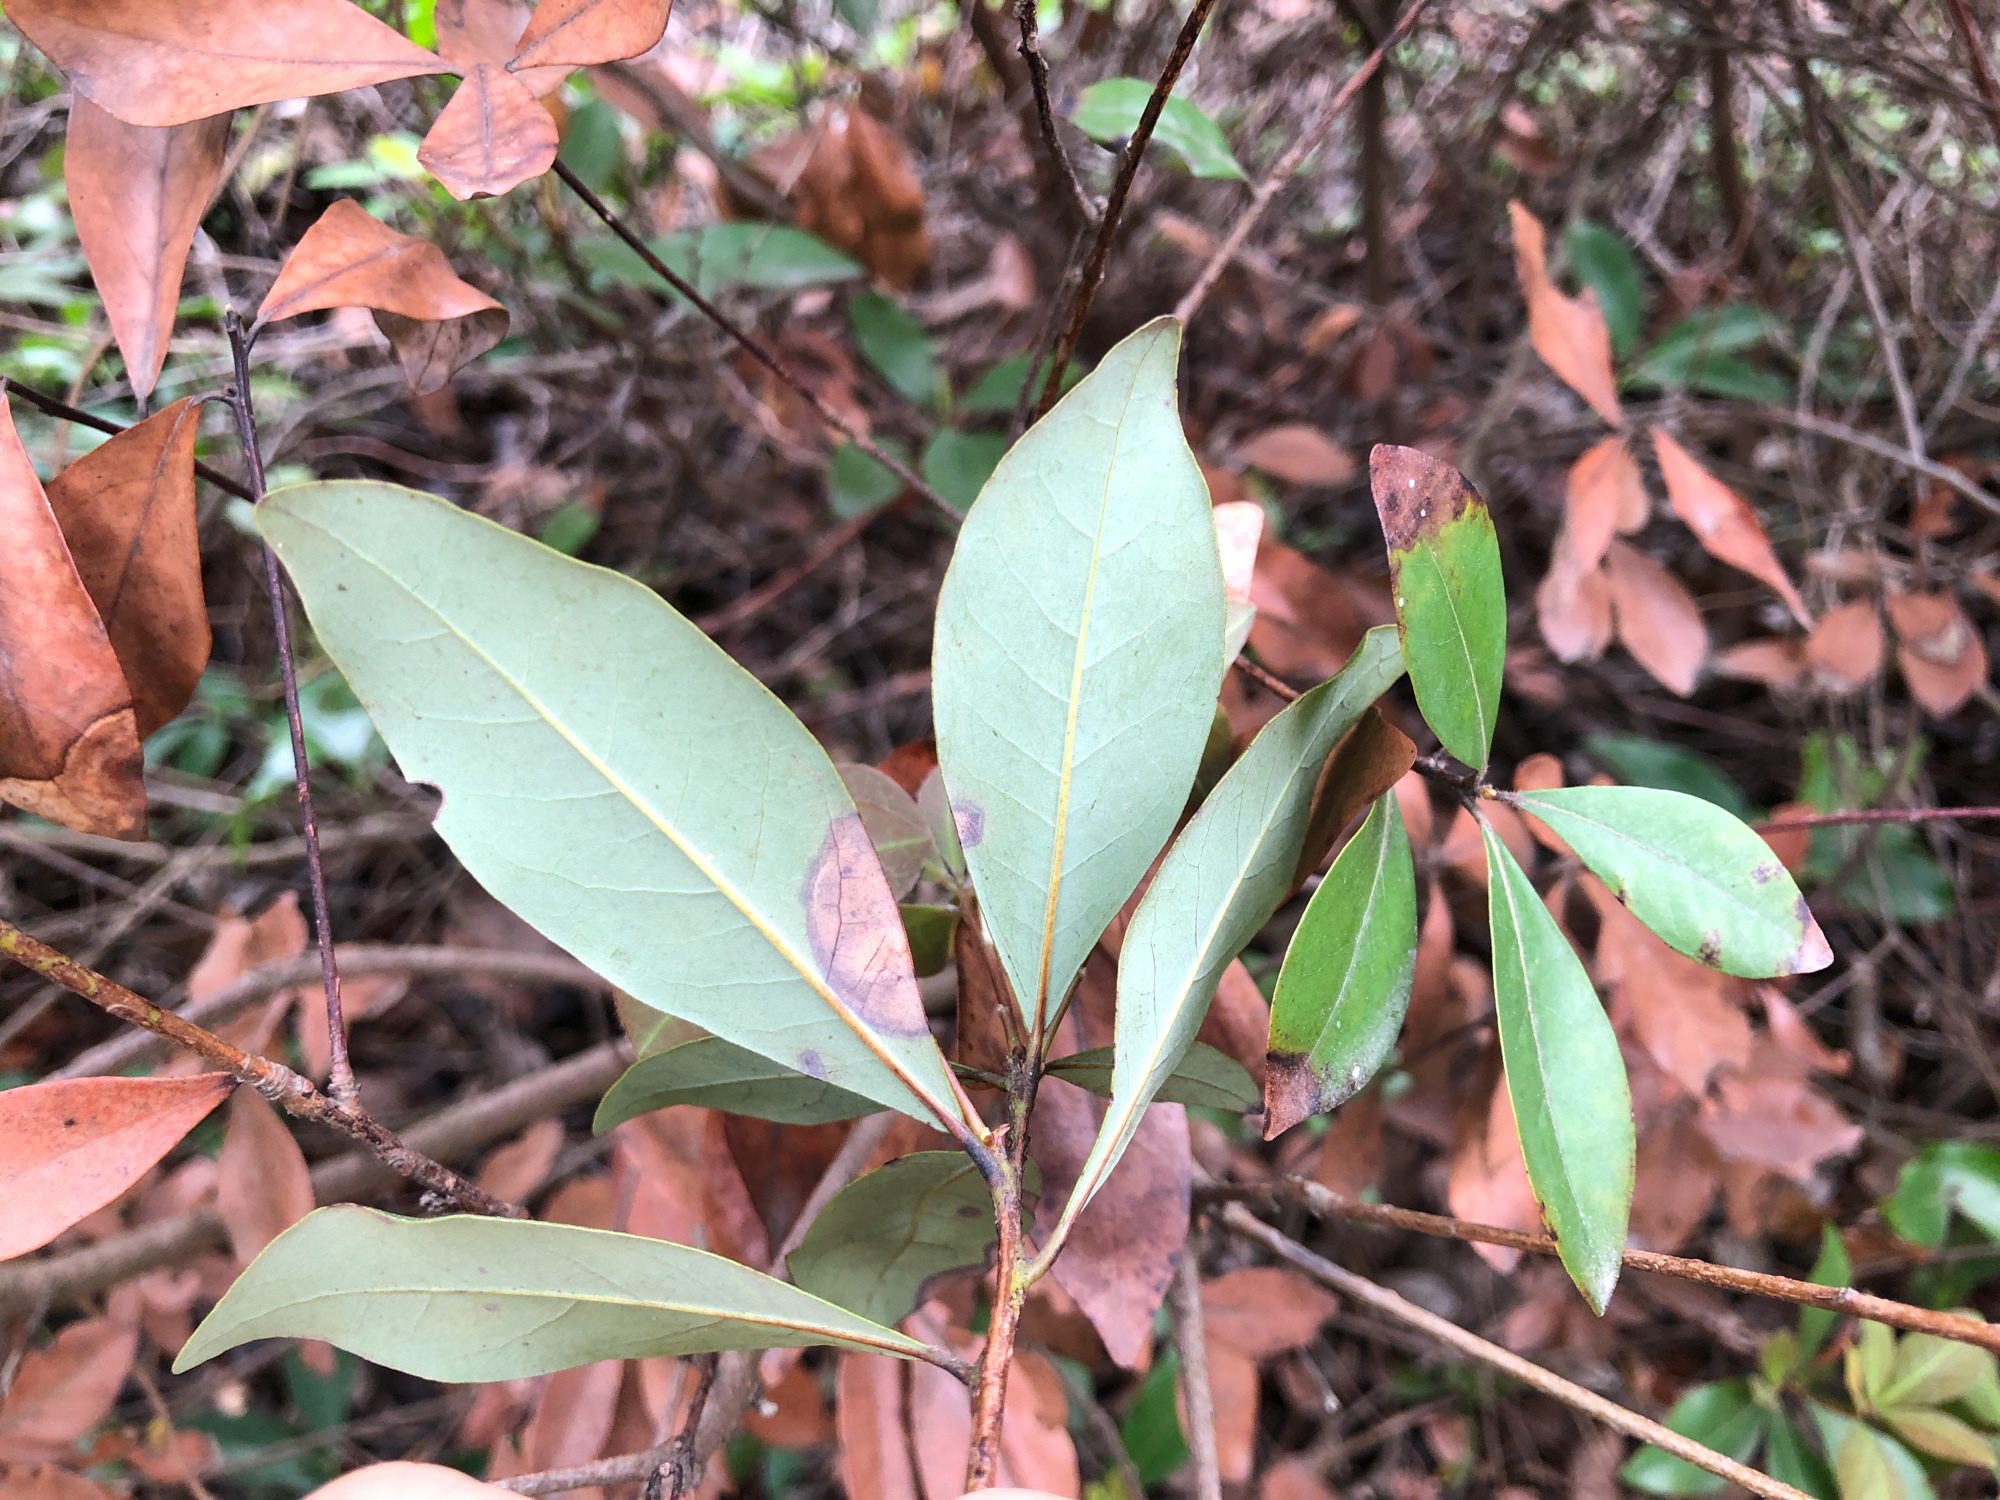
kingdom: Plantae
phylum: Tracheophyta
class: Magnoliopsida
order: Laurales
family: Lauraceae
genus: Litsea
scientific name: Litsea rotundifolia
